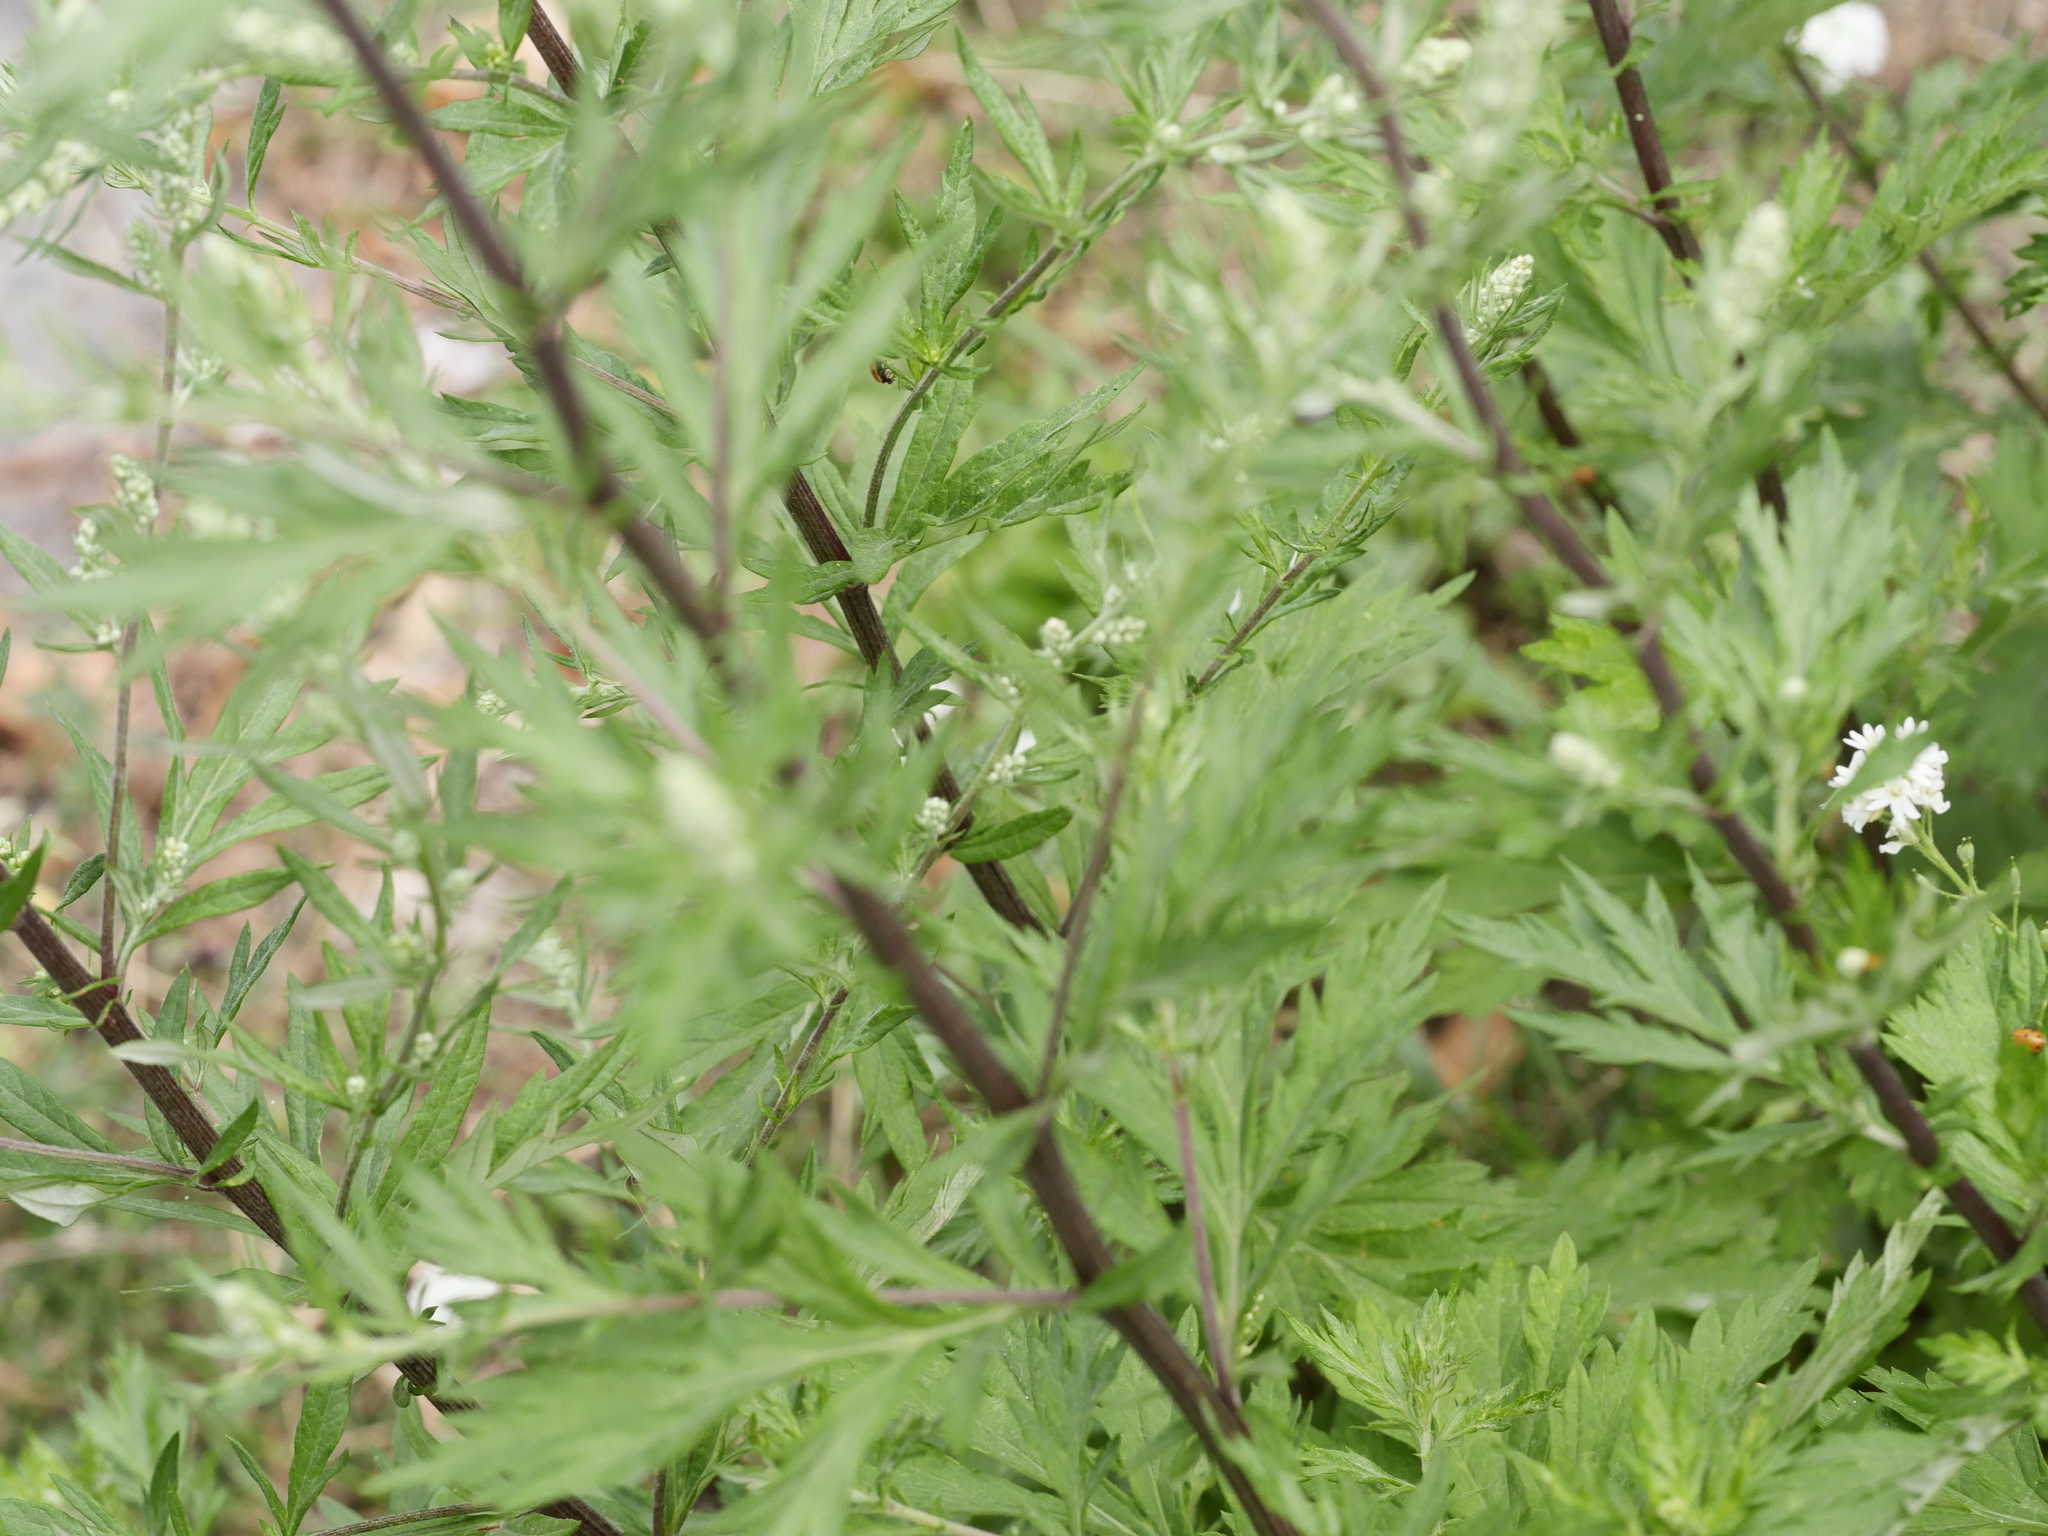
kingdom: Plantae
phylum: Tracheophyta
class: Magnoliopsida
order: Asterales
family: Asteraceae
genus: Artemisia
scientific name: Artemisia vulgaris
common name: Mugwort
